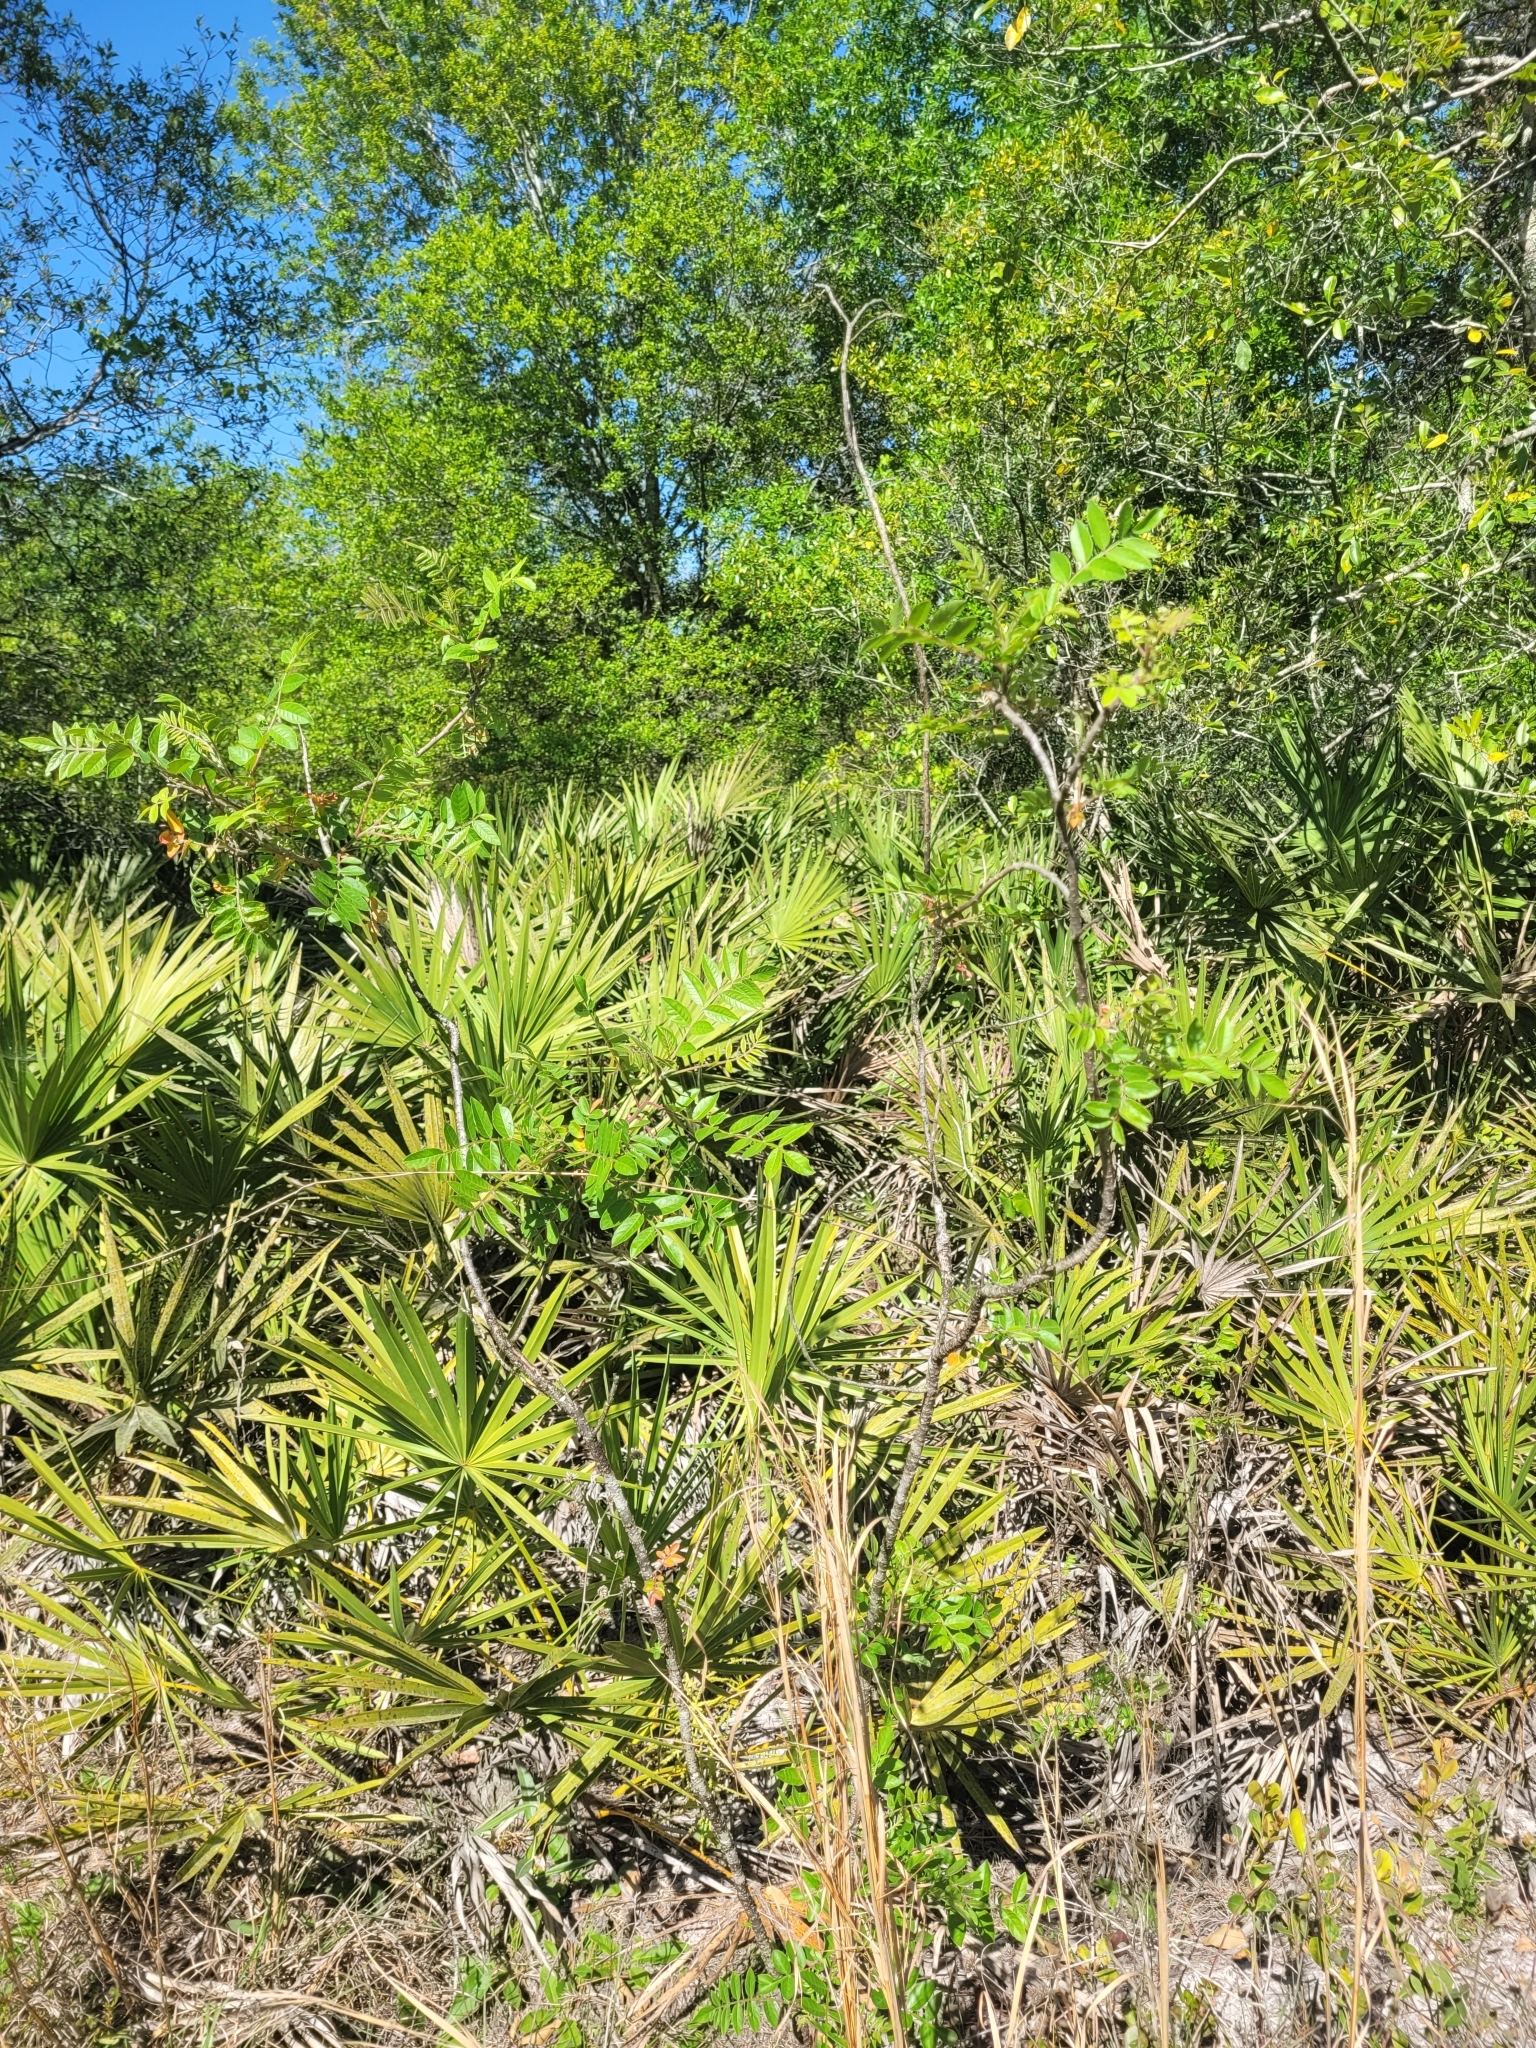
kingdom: Plantae
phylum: Tracheophyta
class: Magnoliopsida
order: Sapindales
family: Anacardiaceae
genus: Rhus
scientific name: Rhus copallina
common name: Shining sumac
